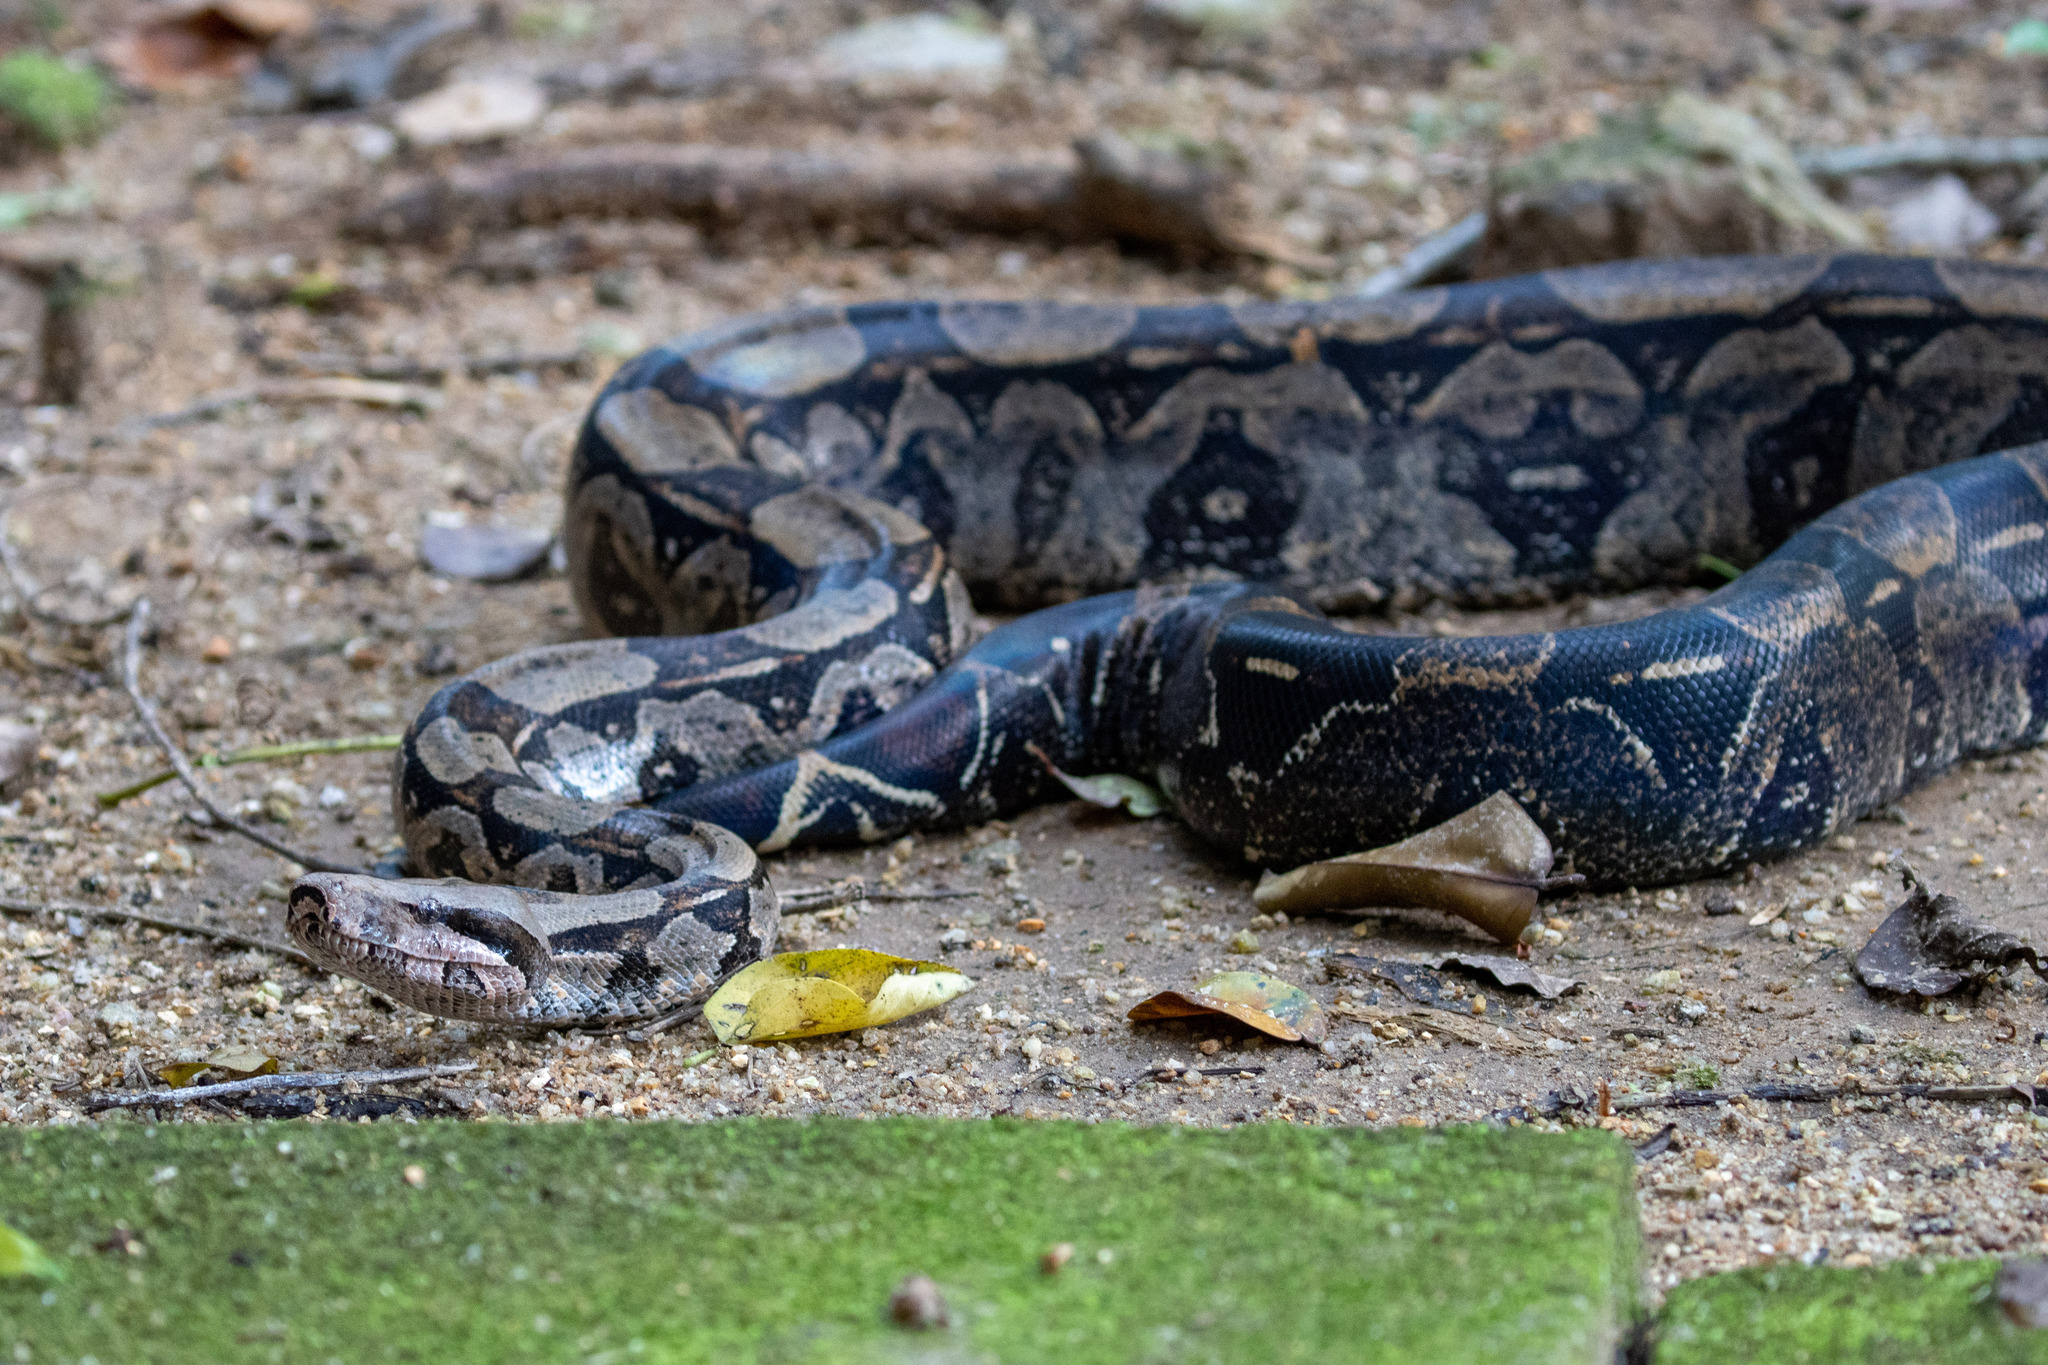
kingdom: Animalia
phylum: Chordata
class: Squamata
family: Boidae
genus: Boa
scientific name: Boa constrictor
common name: Boa constrictor
